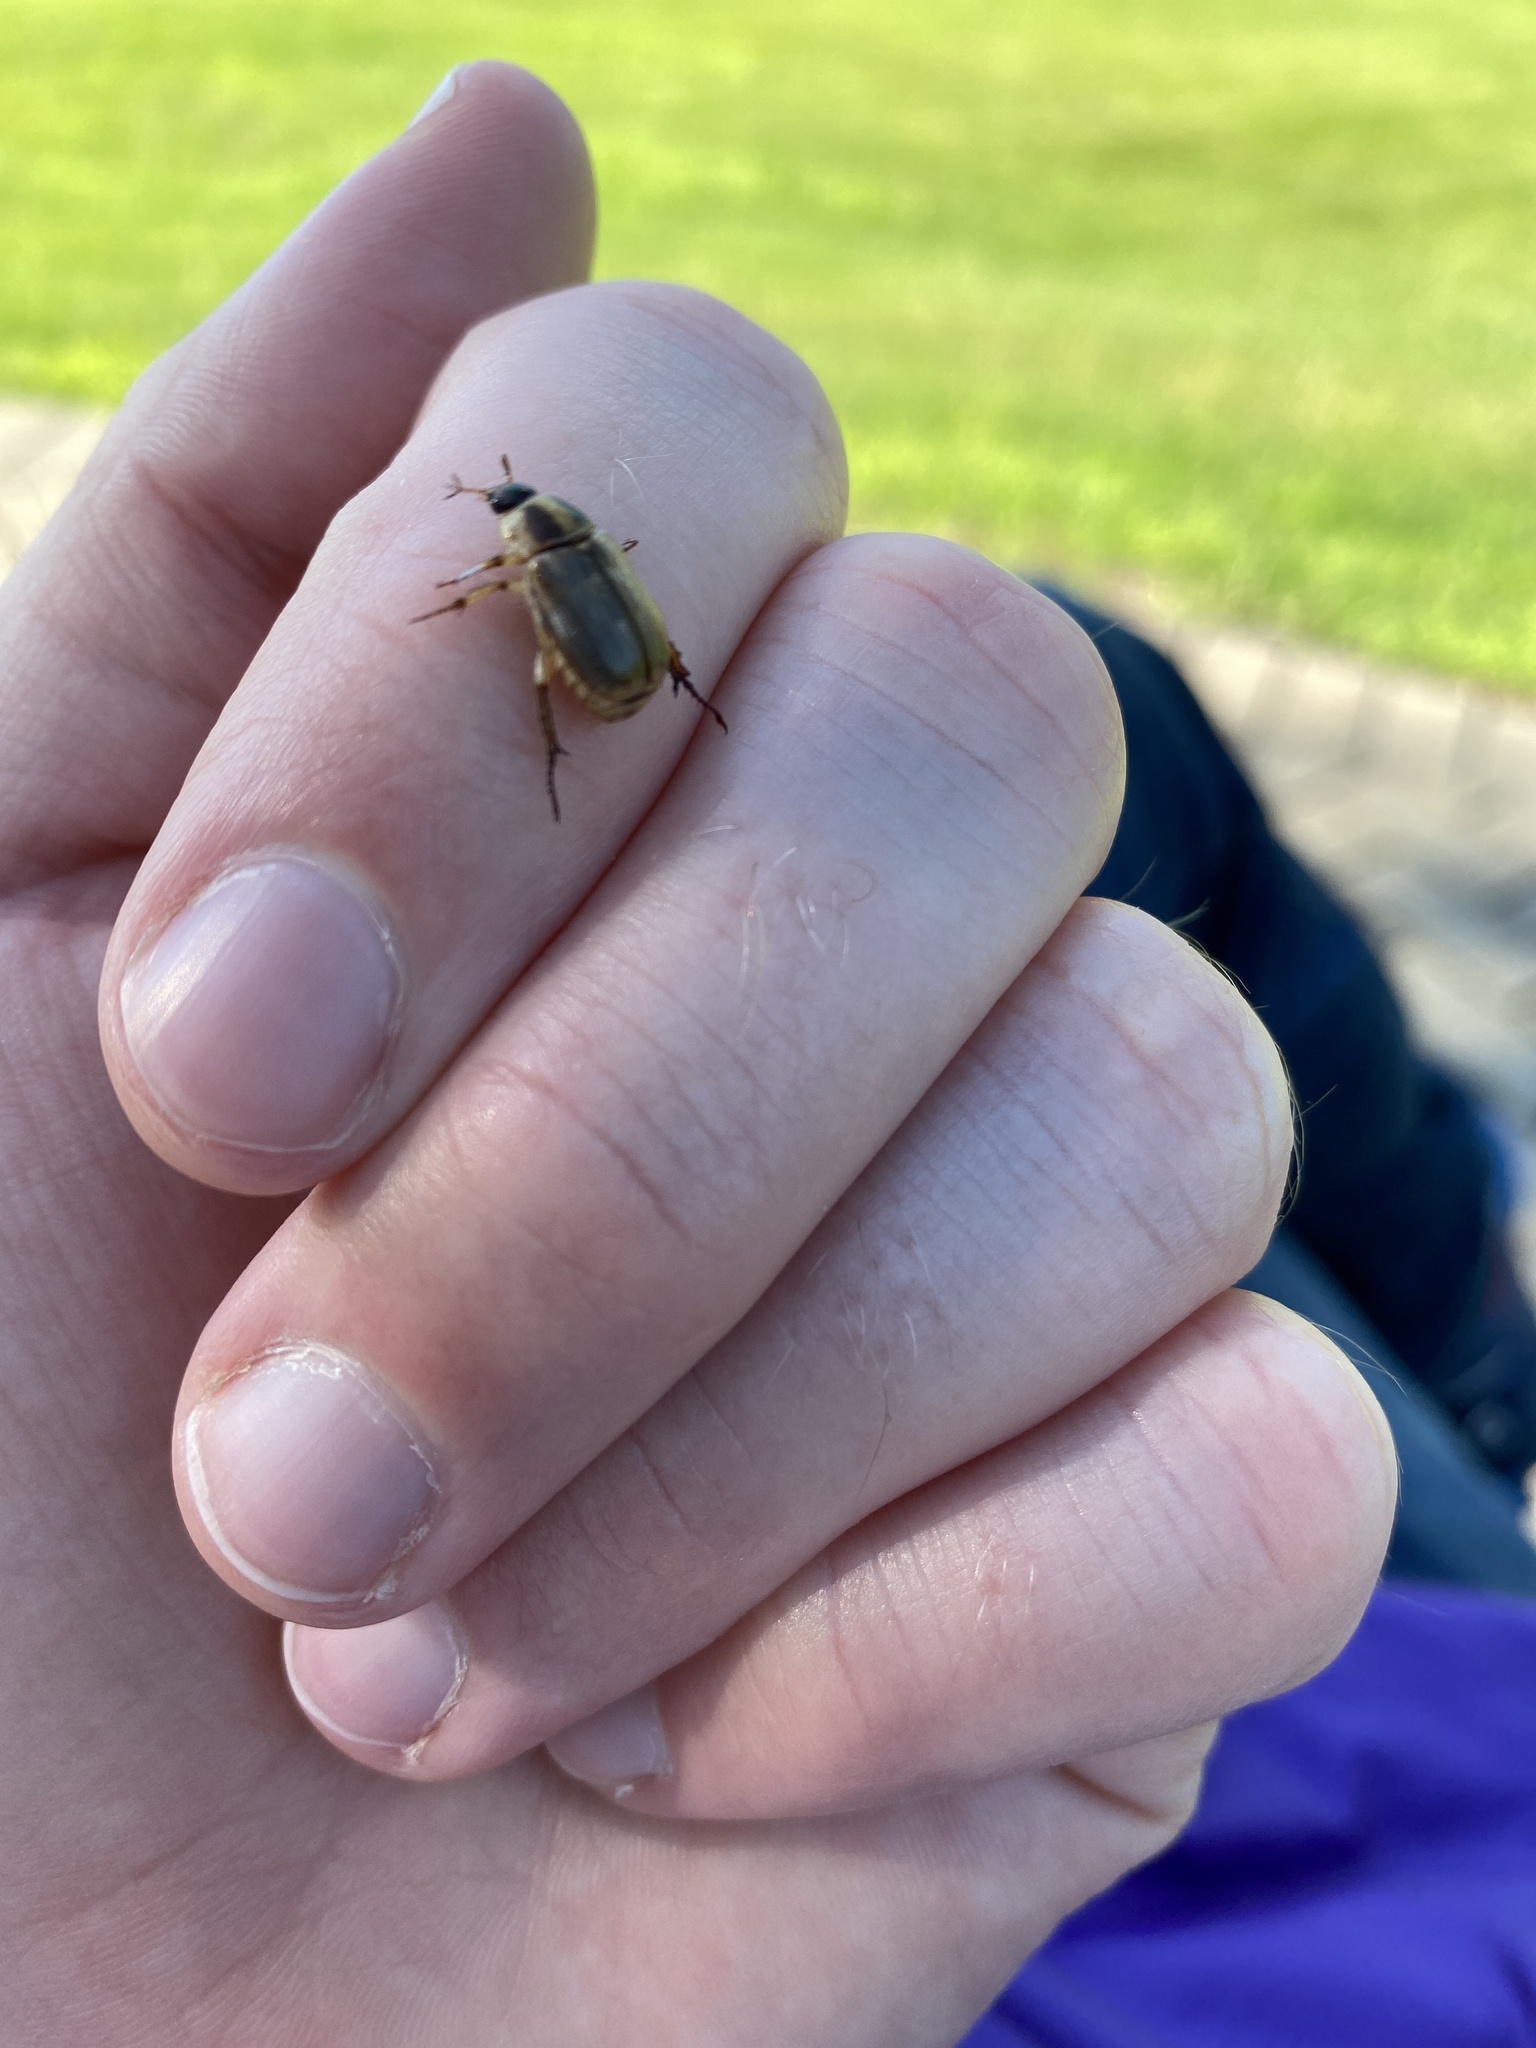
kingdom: Animalia
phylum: Arthropoda
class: Insecta
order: Coleoptera
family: Scarabaeidae
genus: Exomala
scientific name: Exomala orientalis
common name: Oriental beetle
